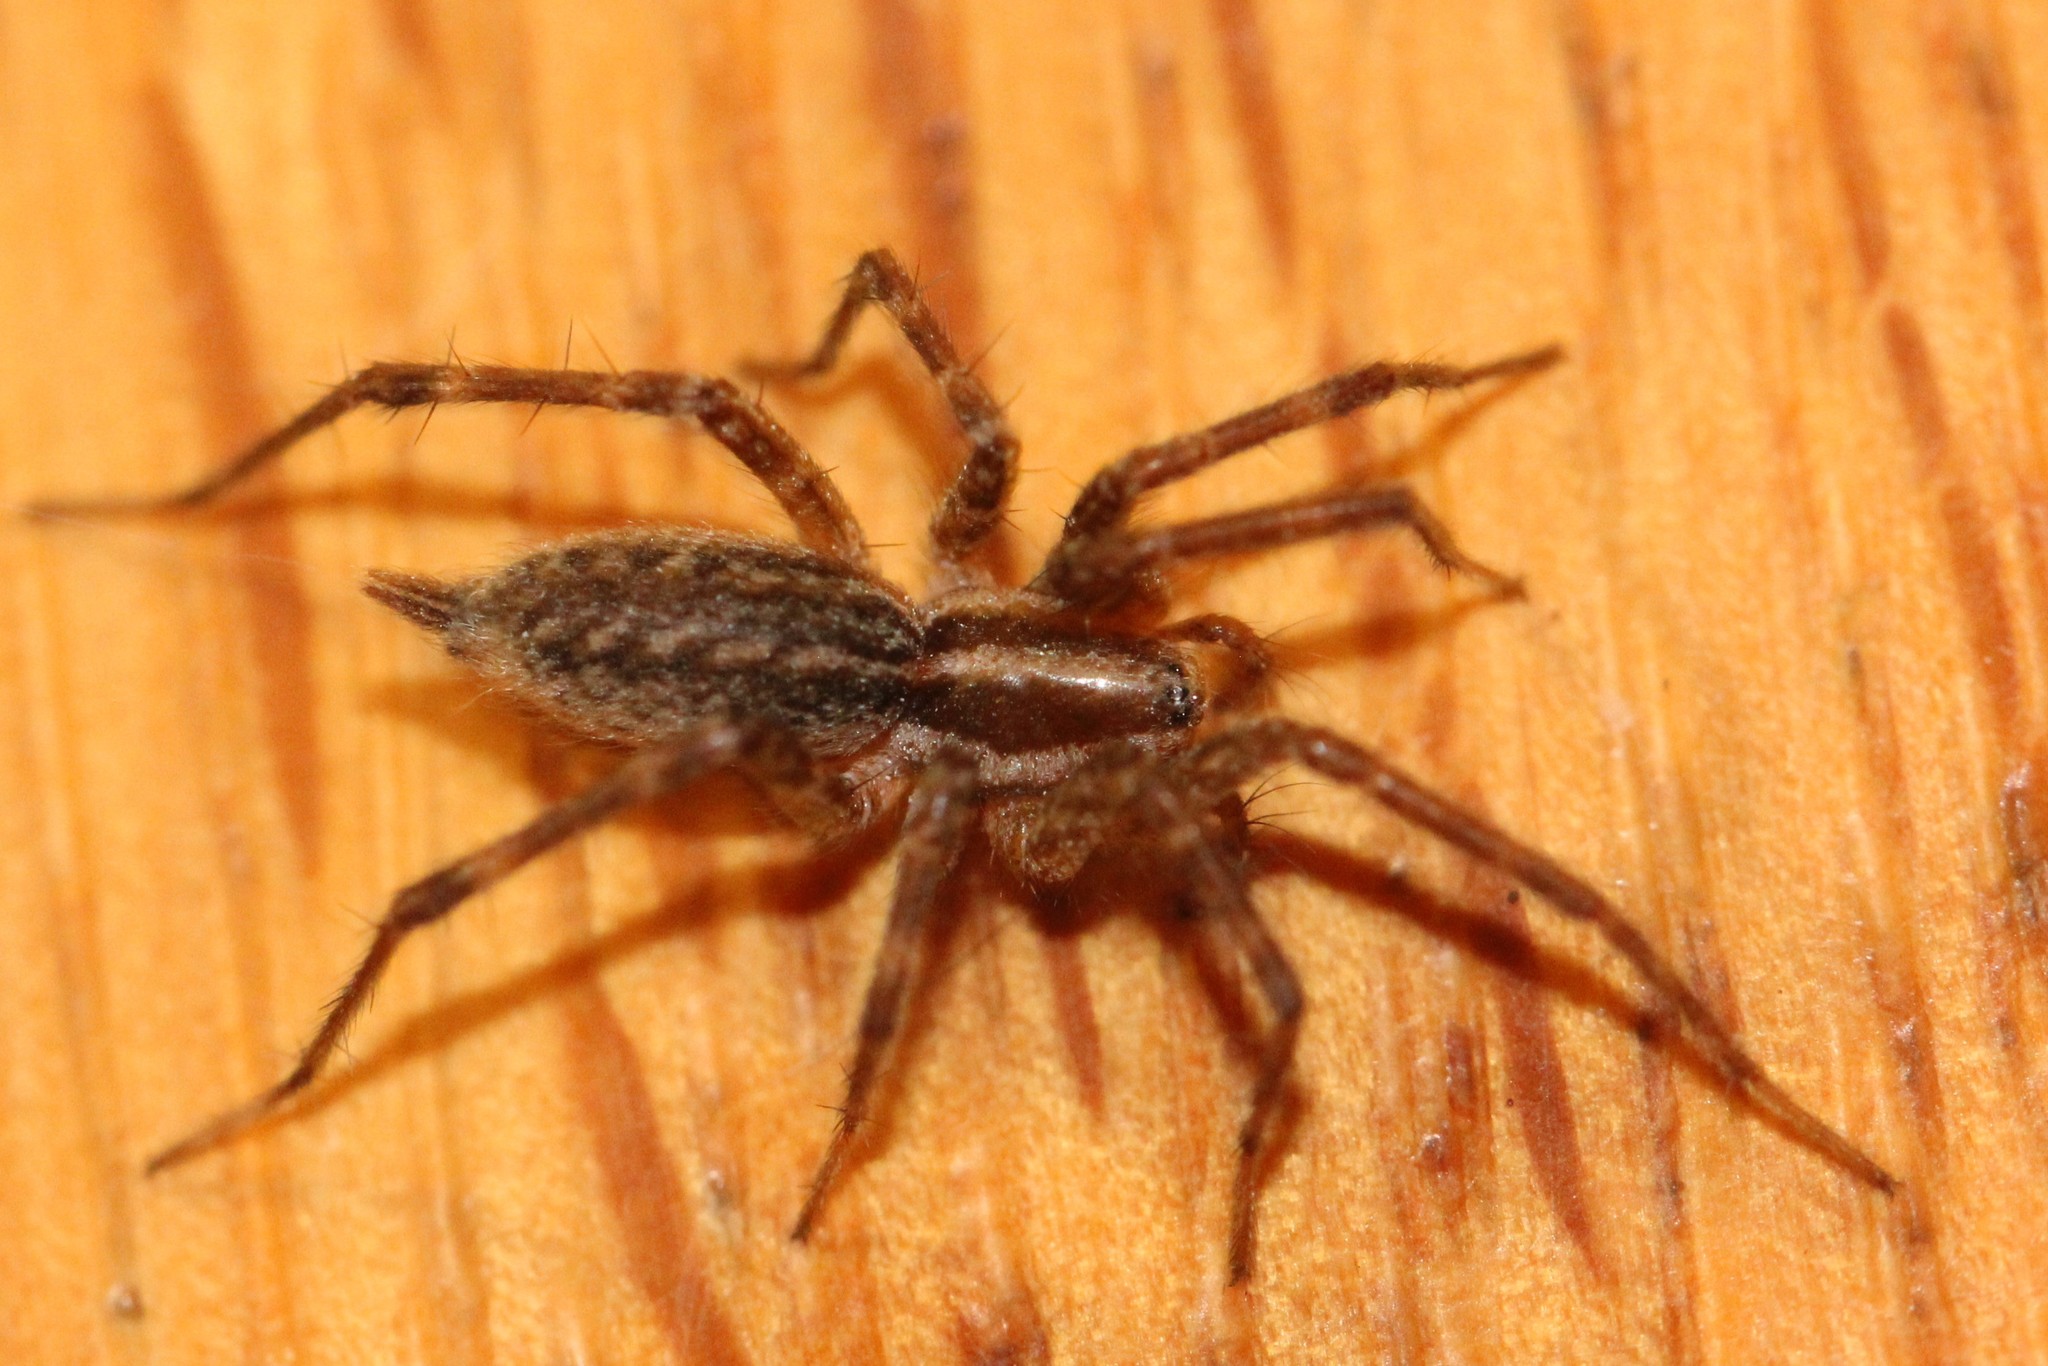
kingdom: Animalia
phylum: Arthropoda
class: Arachnida
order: Araneae
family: Agelenidae
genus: Agelenopsis
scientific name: Agelenopsis
